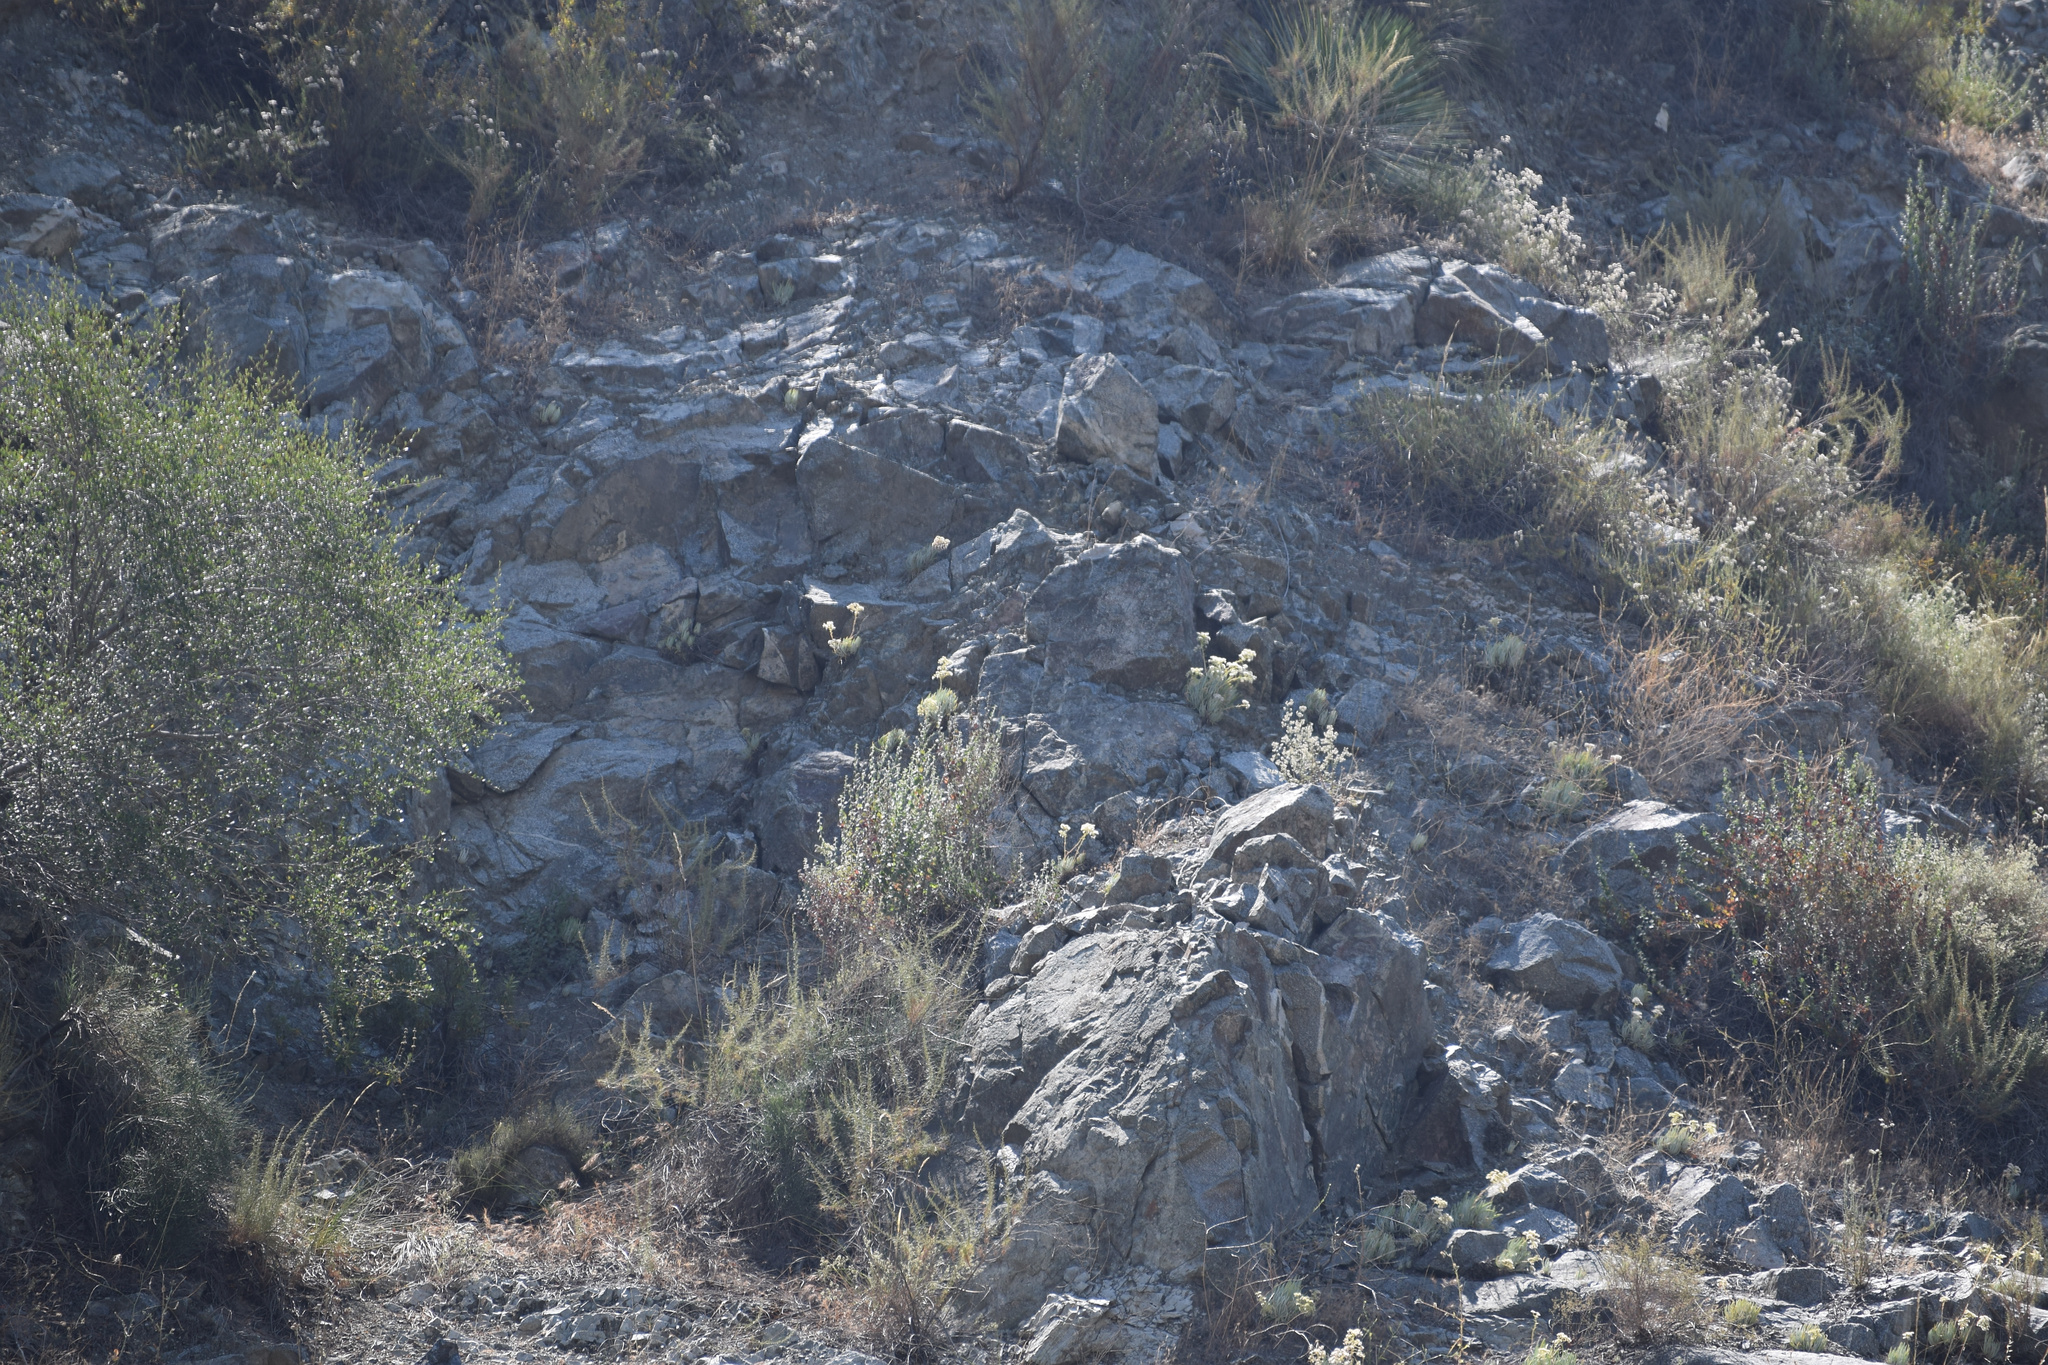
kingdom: Plantae
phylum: Tracheophyta
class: Magnoliopsida
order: Saxifragales
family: Crassulaceae
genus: Dudleya
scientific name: Dudleya densiflora
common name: San gabriel mountains dudleya
